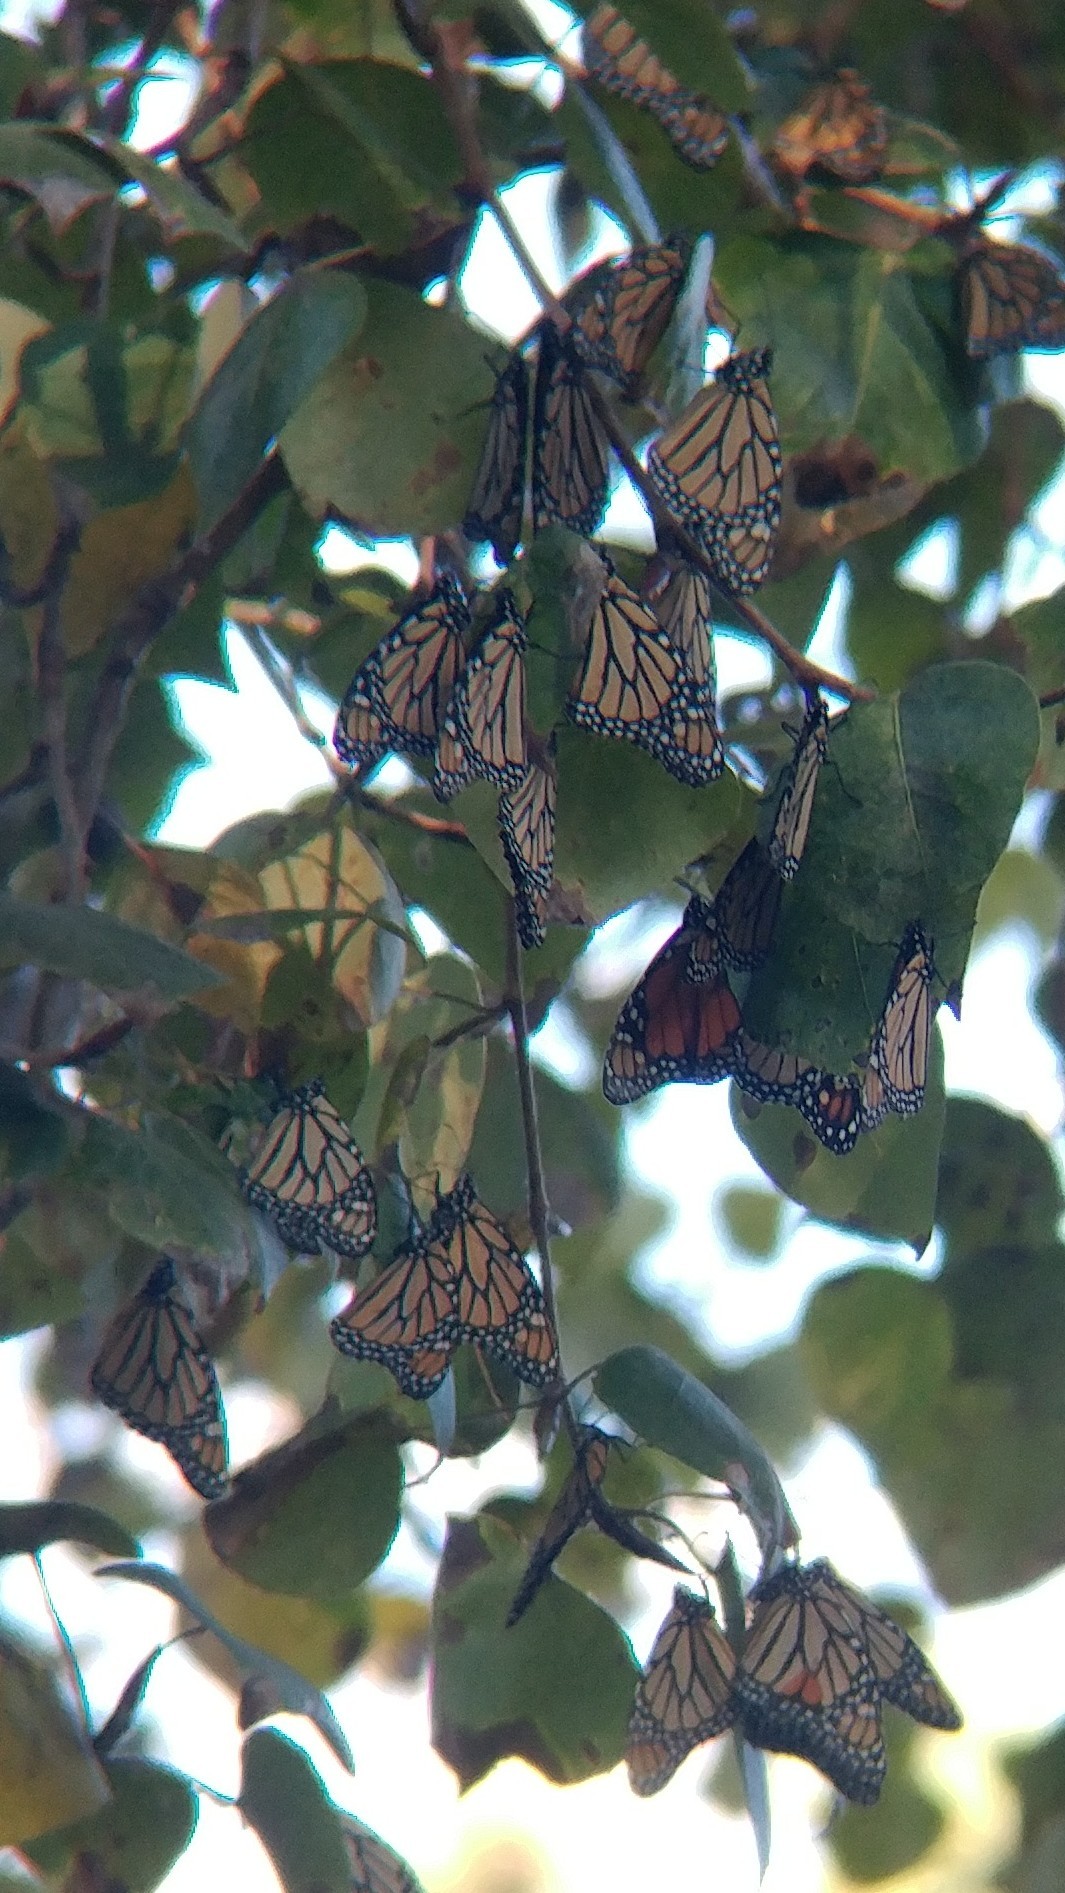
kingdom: Animalia
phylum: Arthropoda
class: Insecta
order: Lepidoptera
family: Nymphalidae
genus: Danaus
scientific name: Danaus plexippus
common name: Monarch
